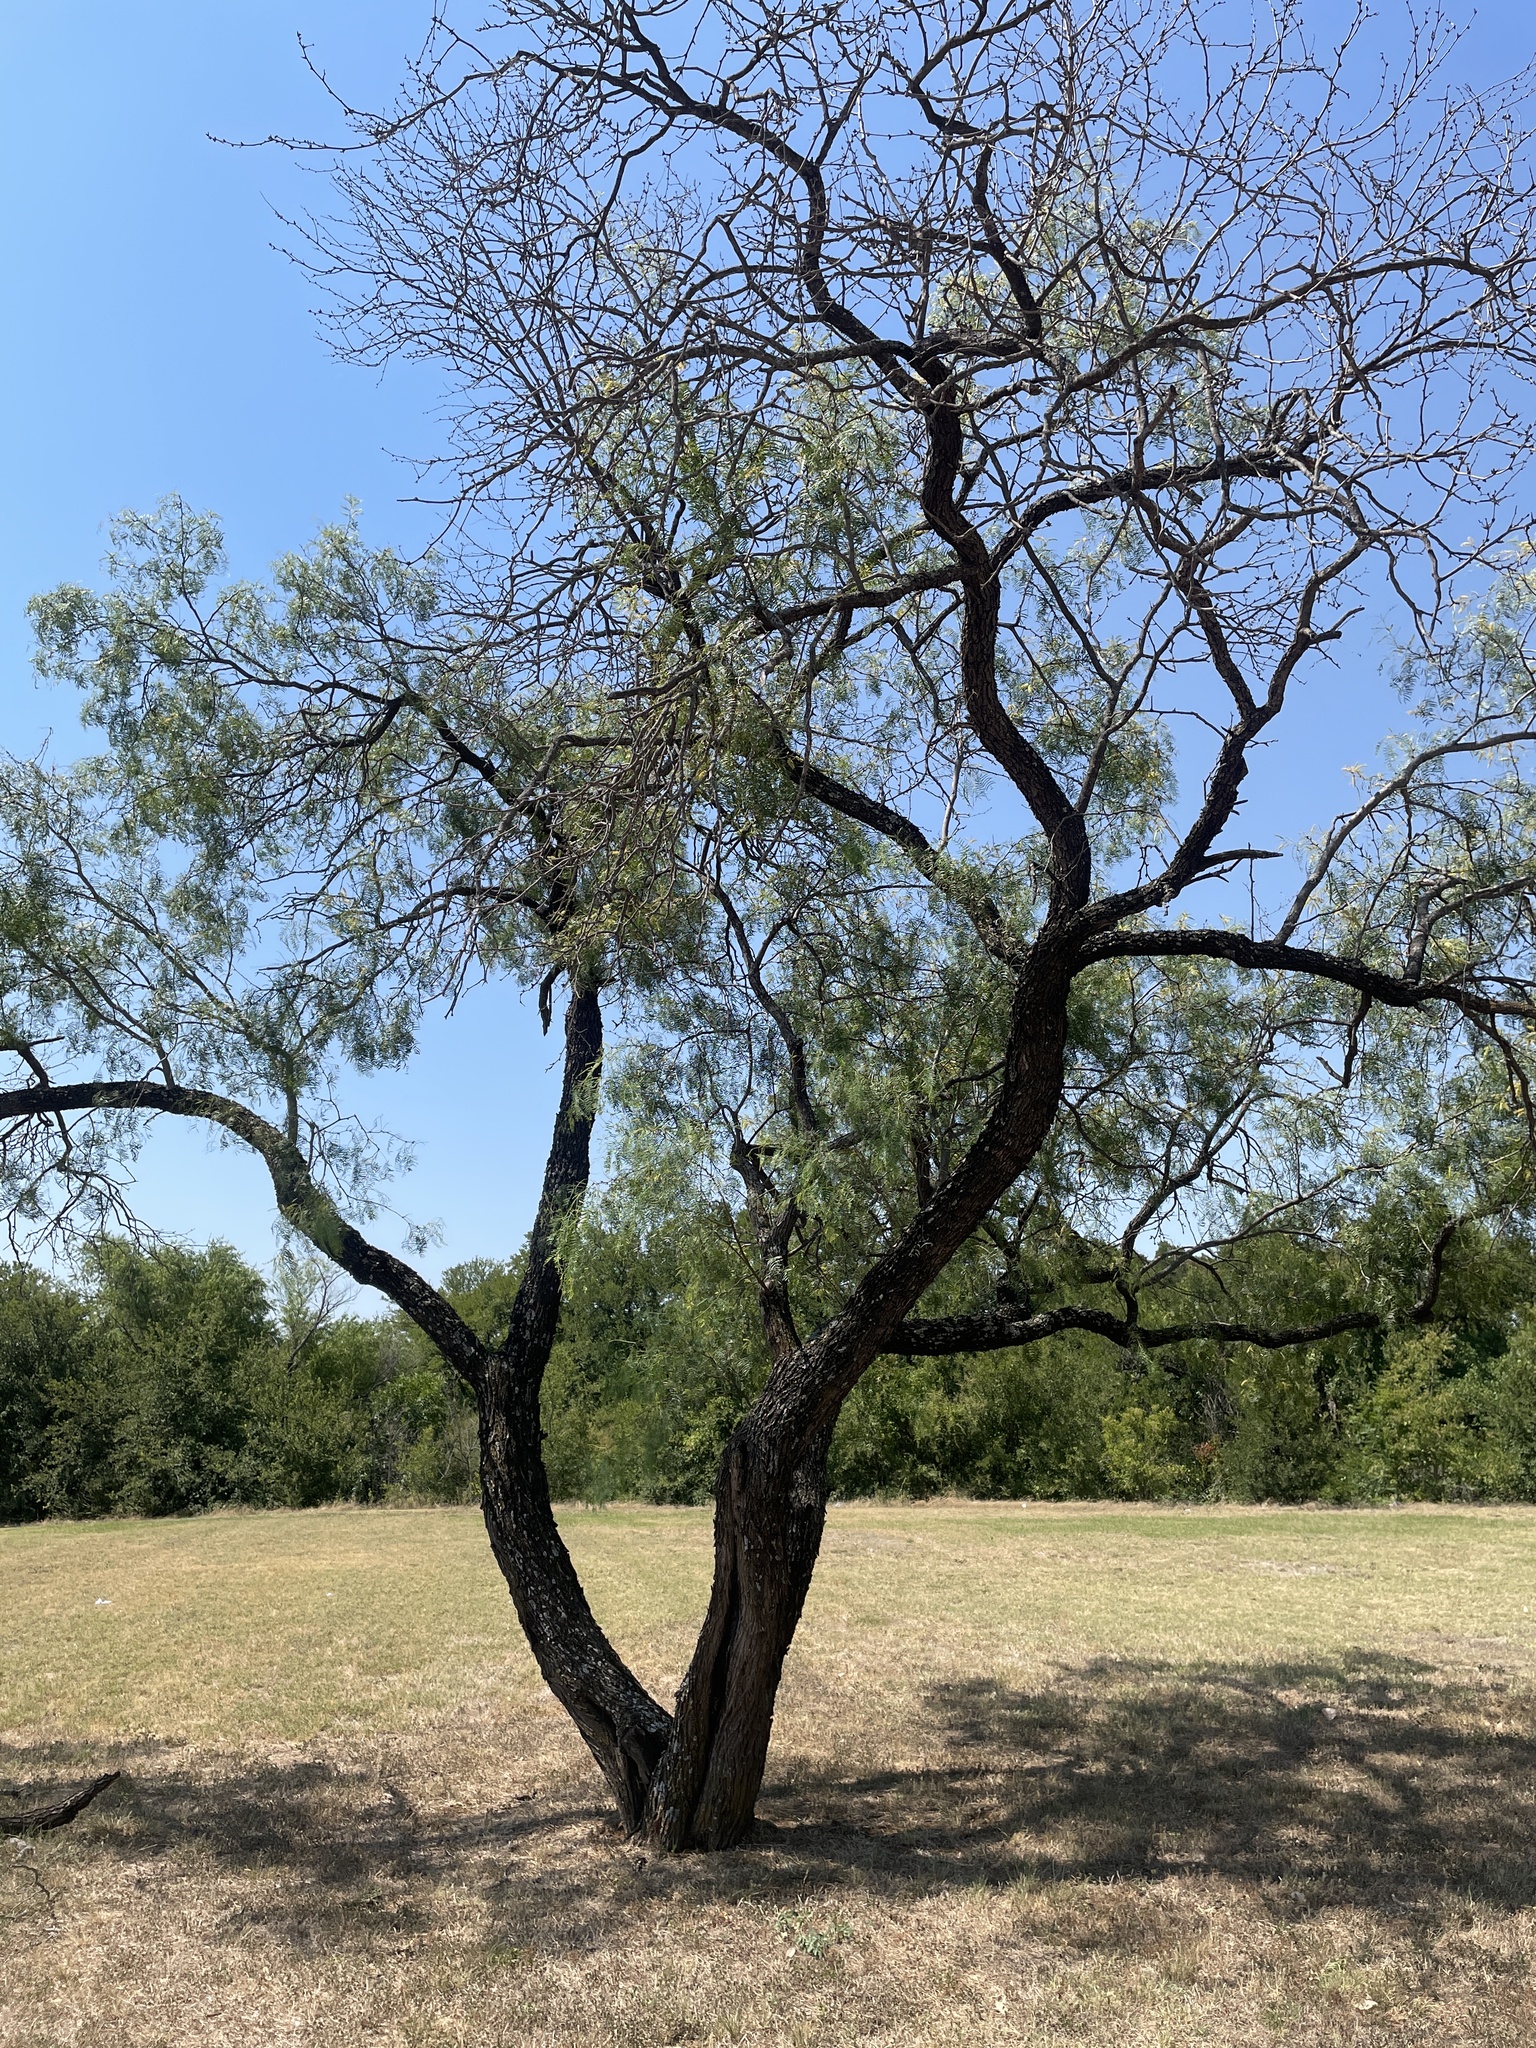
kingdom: Plantae
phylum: Tracheophyta
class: Magnoliopsida
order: Fabales
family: Fabaceae
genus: Prosopis
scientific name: Prosopis glandulosa
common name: Honey mesquite
